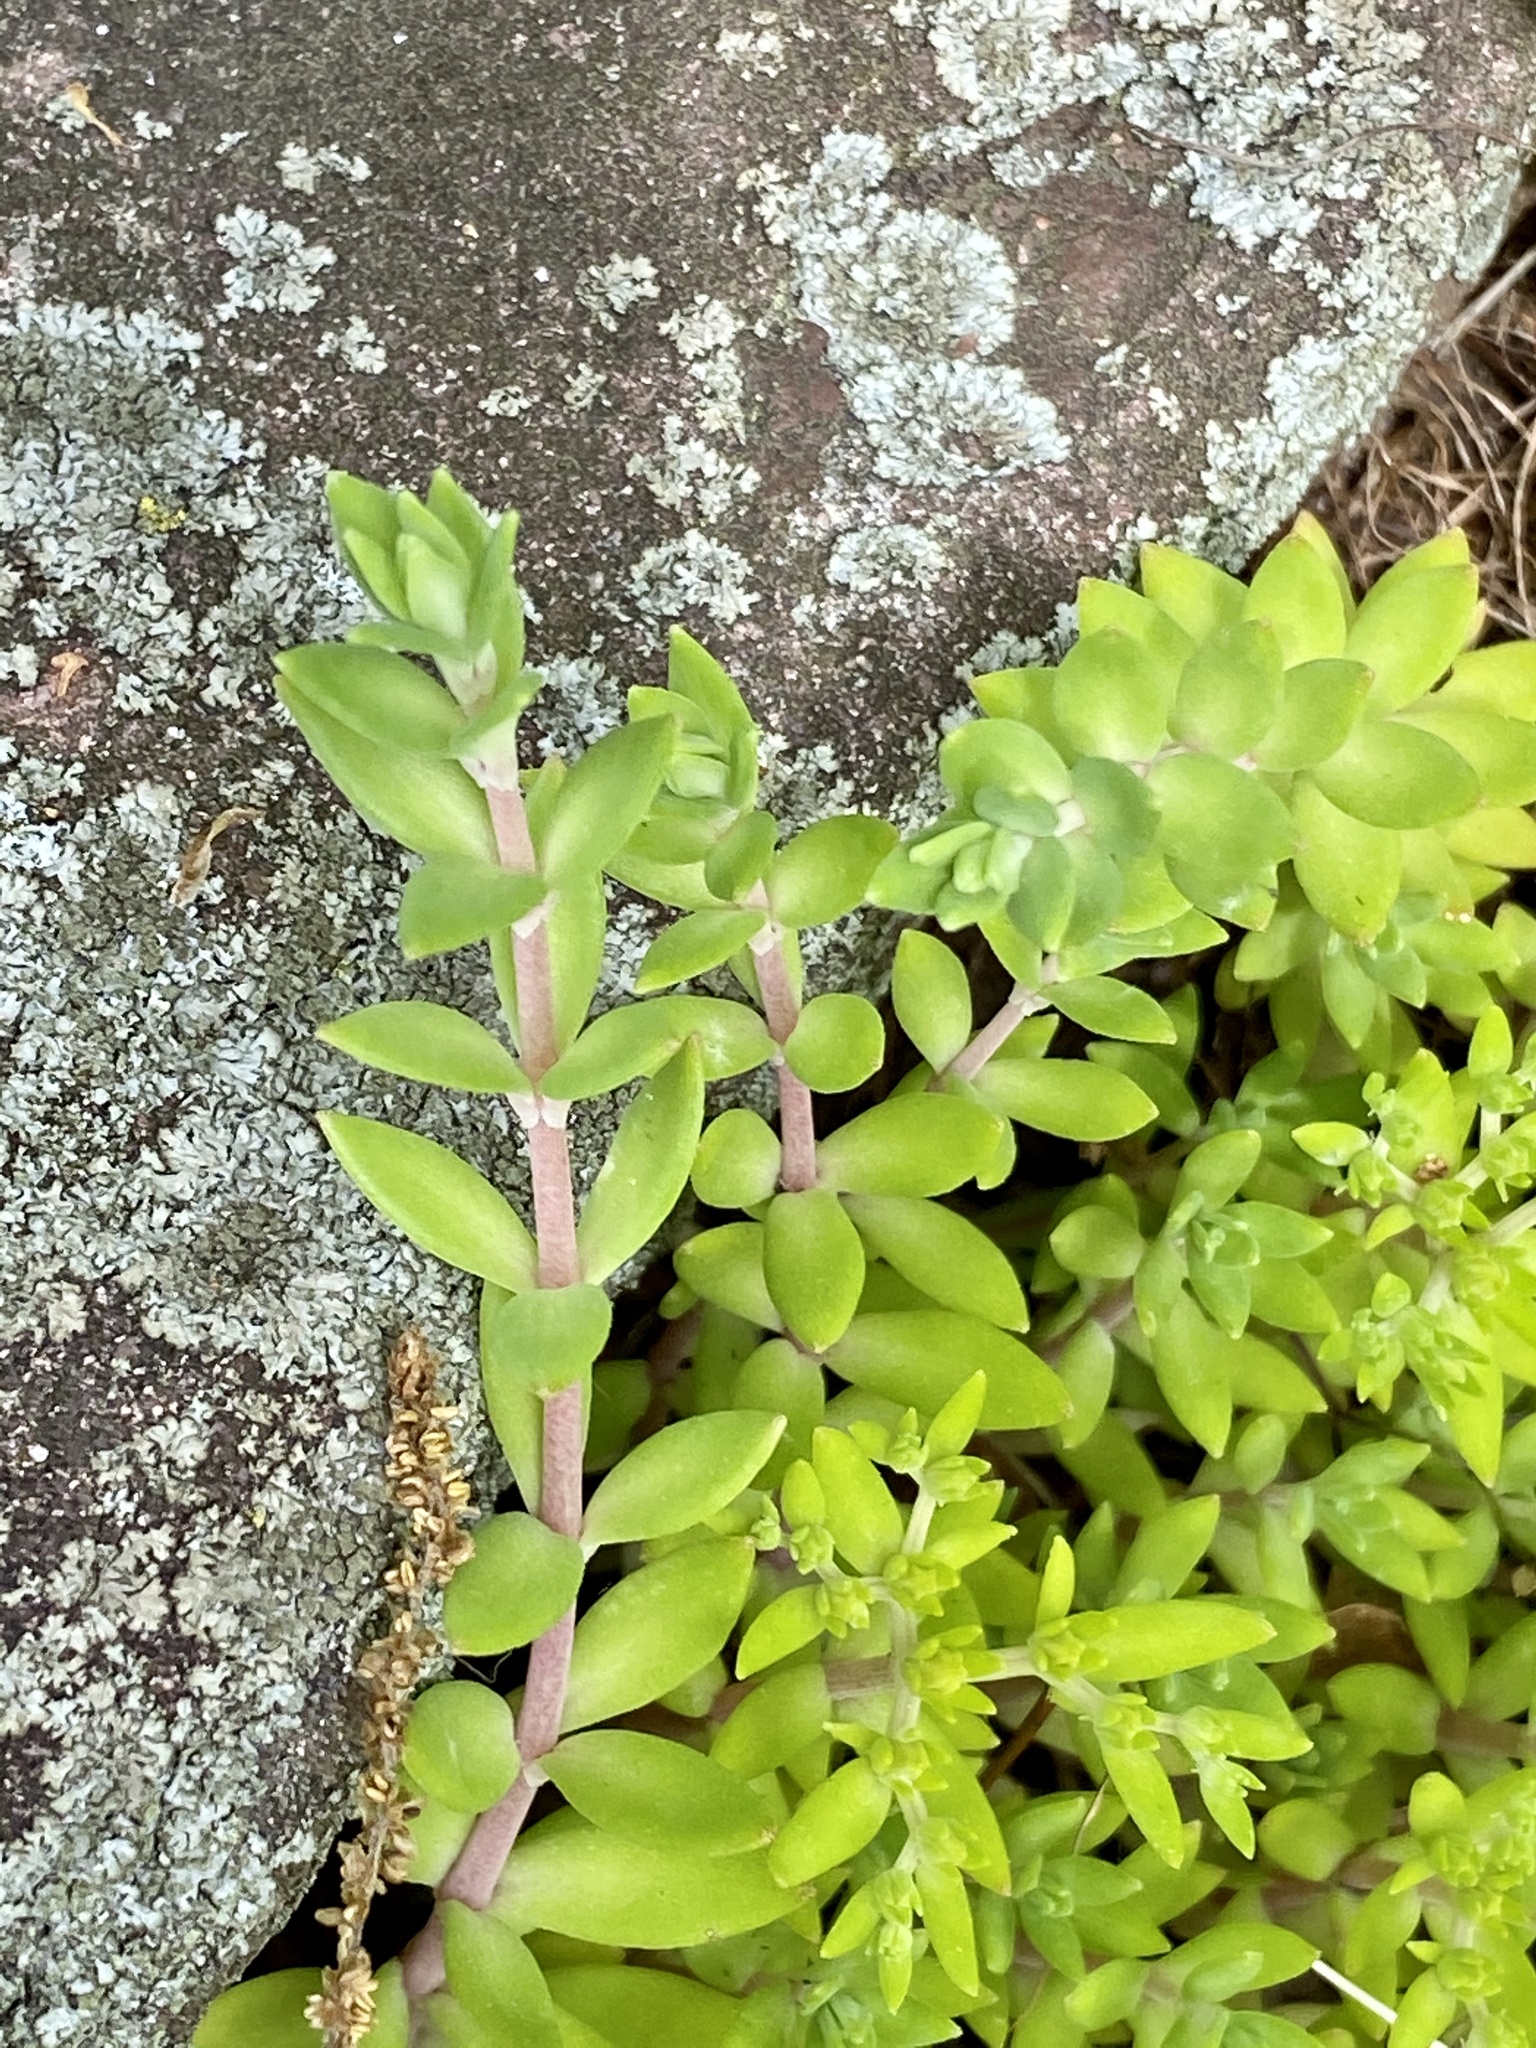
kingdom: Plantae
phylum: Tracheophyta
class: Magnoliopsida
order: Saxifragales
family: Crassulaceae
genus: Sedum
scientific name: Sedum sarmentosum
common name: Stringy stonecrop
